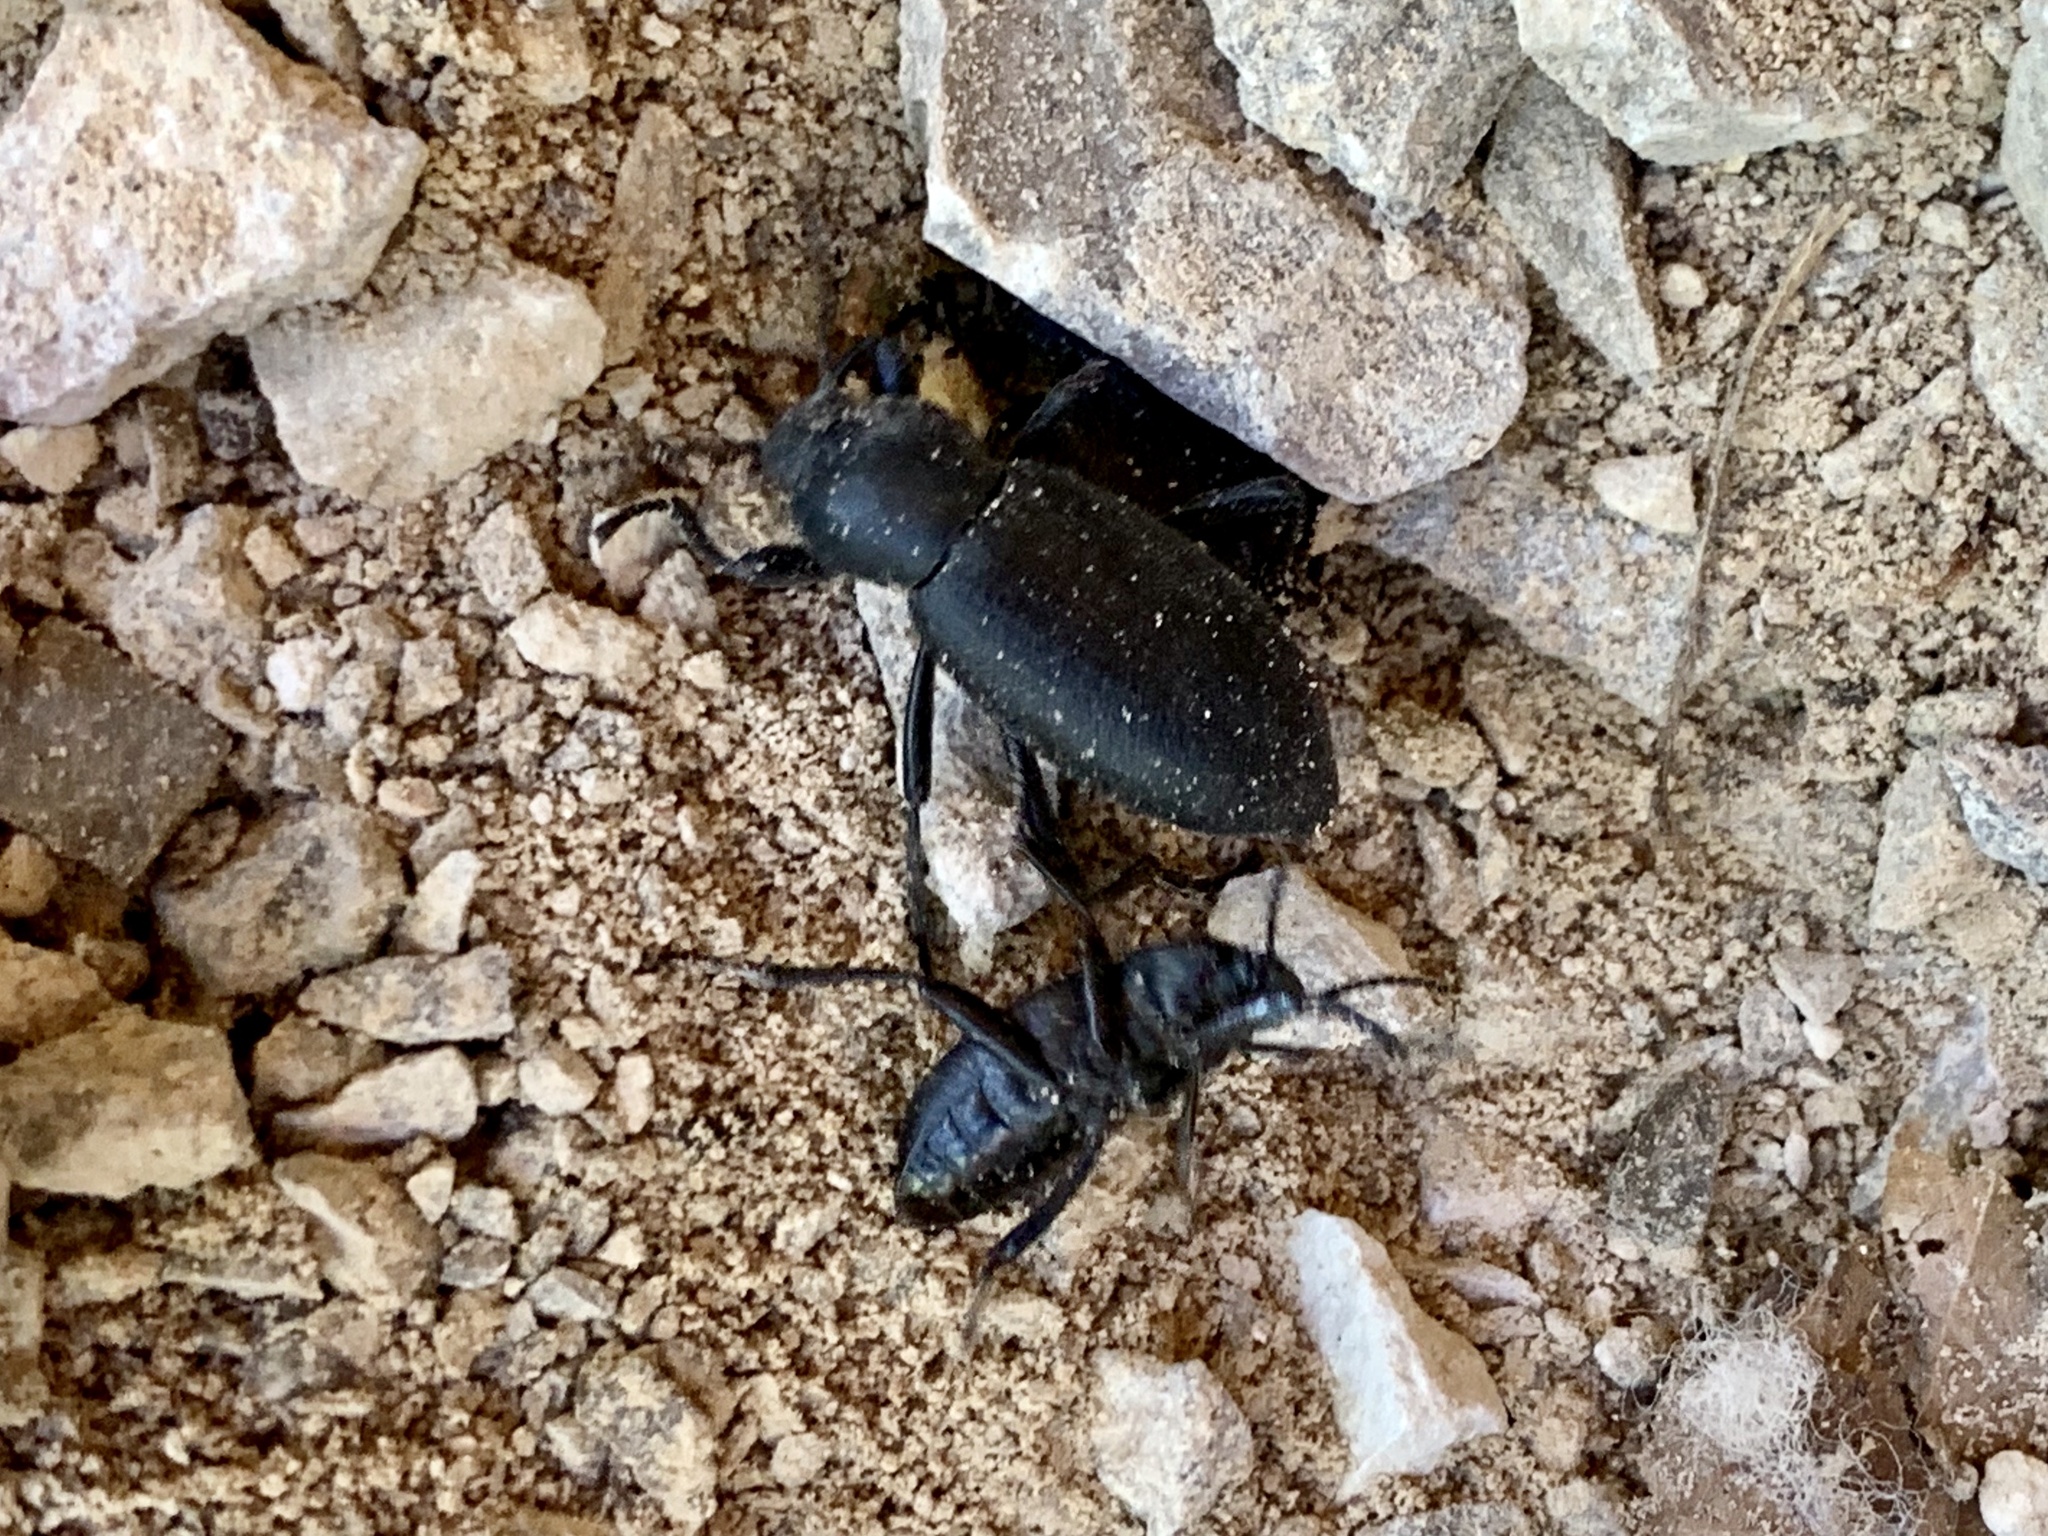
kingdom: Animalia
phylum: Arthropoda
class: Insecta
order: Coleoptera
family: Tenebrionidae
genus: Eleodes
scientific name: Eleodes nigrina
